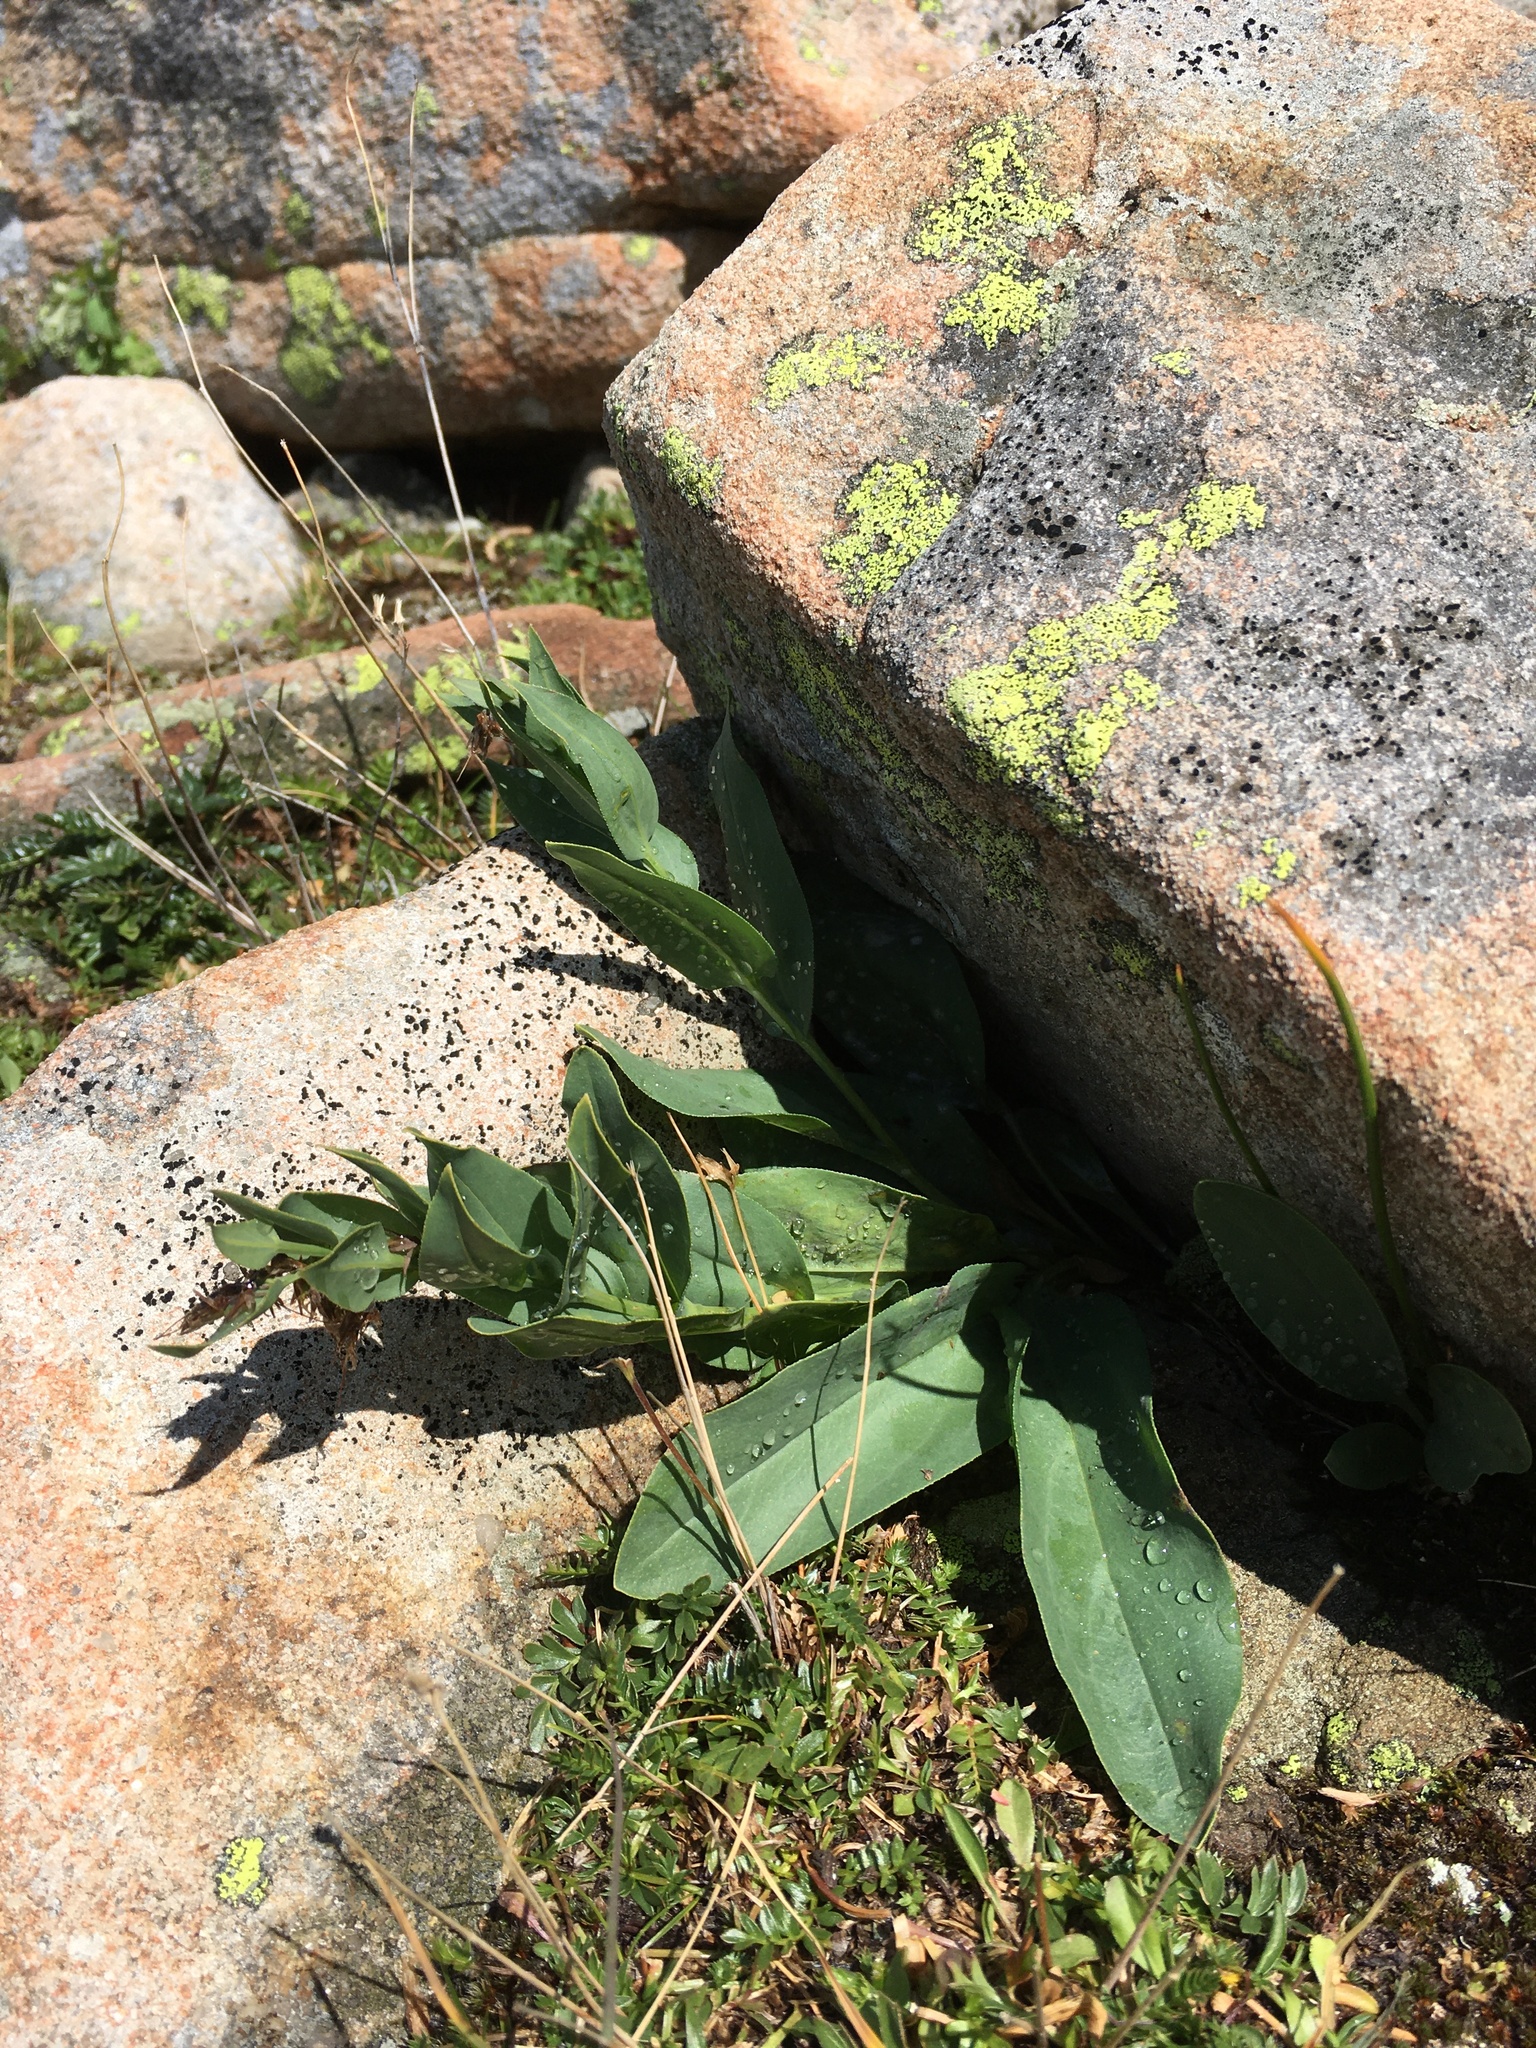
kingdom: Plantae
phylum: Tracheophyta
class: Magnoliopsida
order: Boraginales
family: Boraginaceae
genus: Mertensia
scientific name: Mertensia ovata
